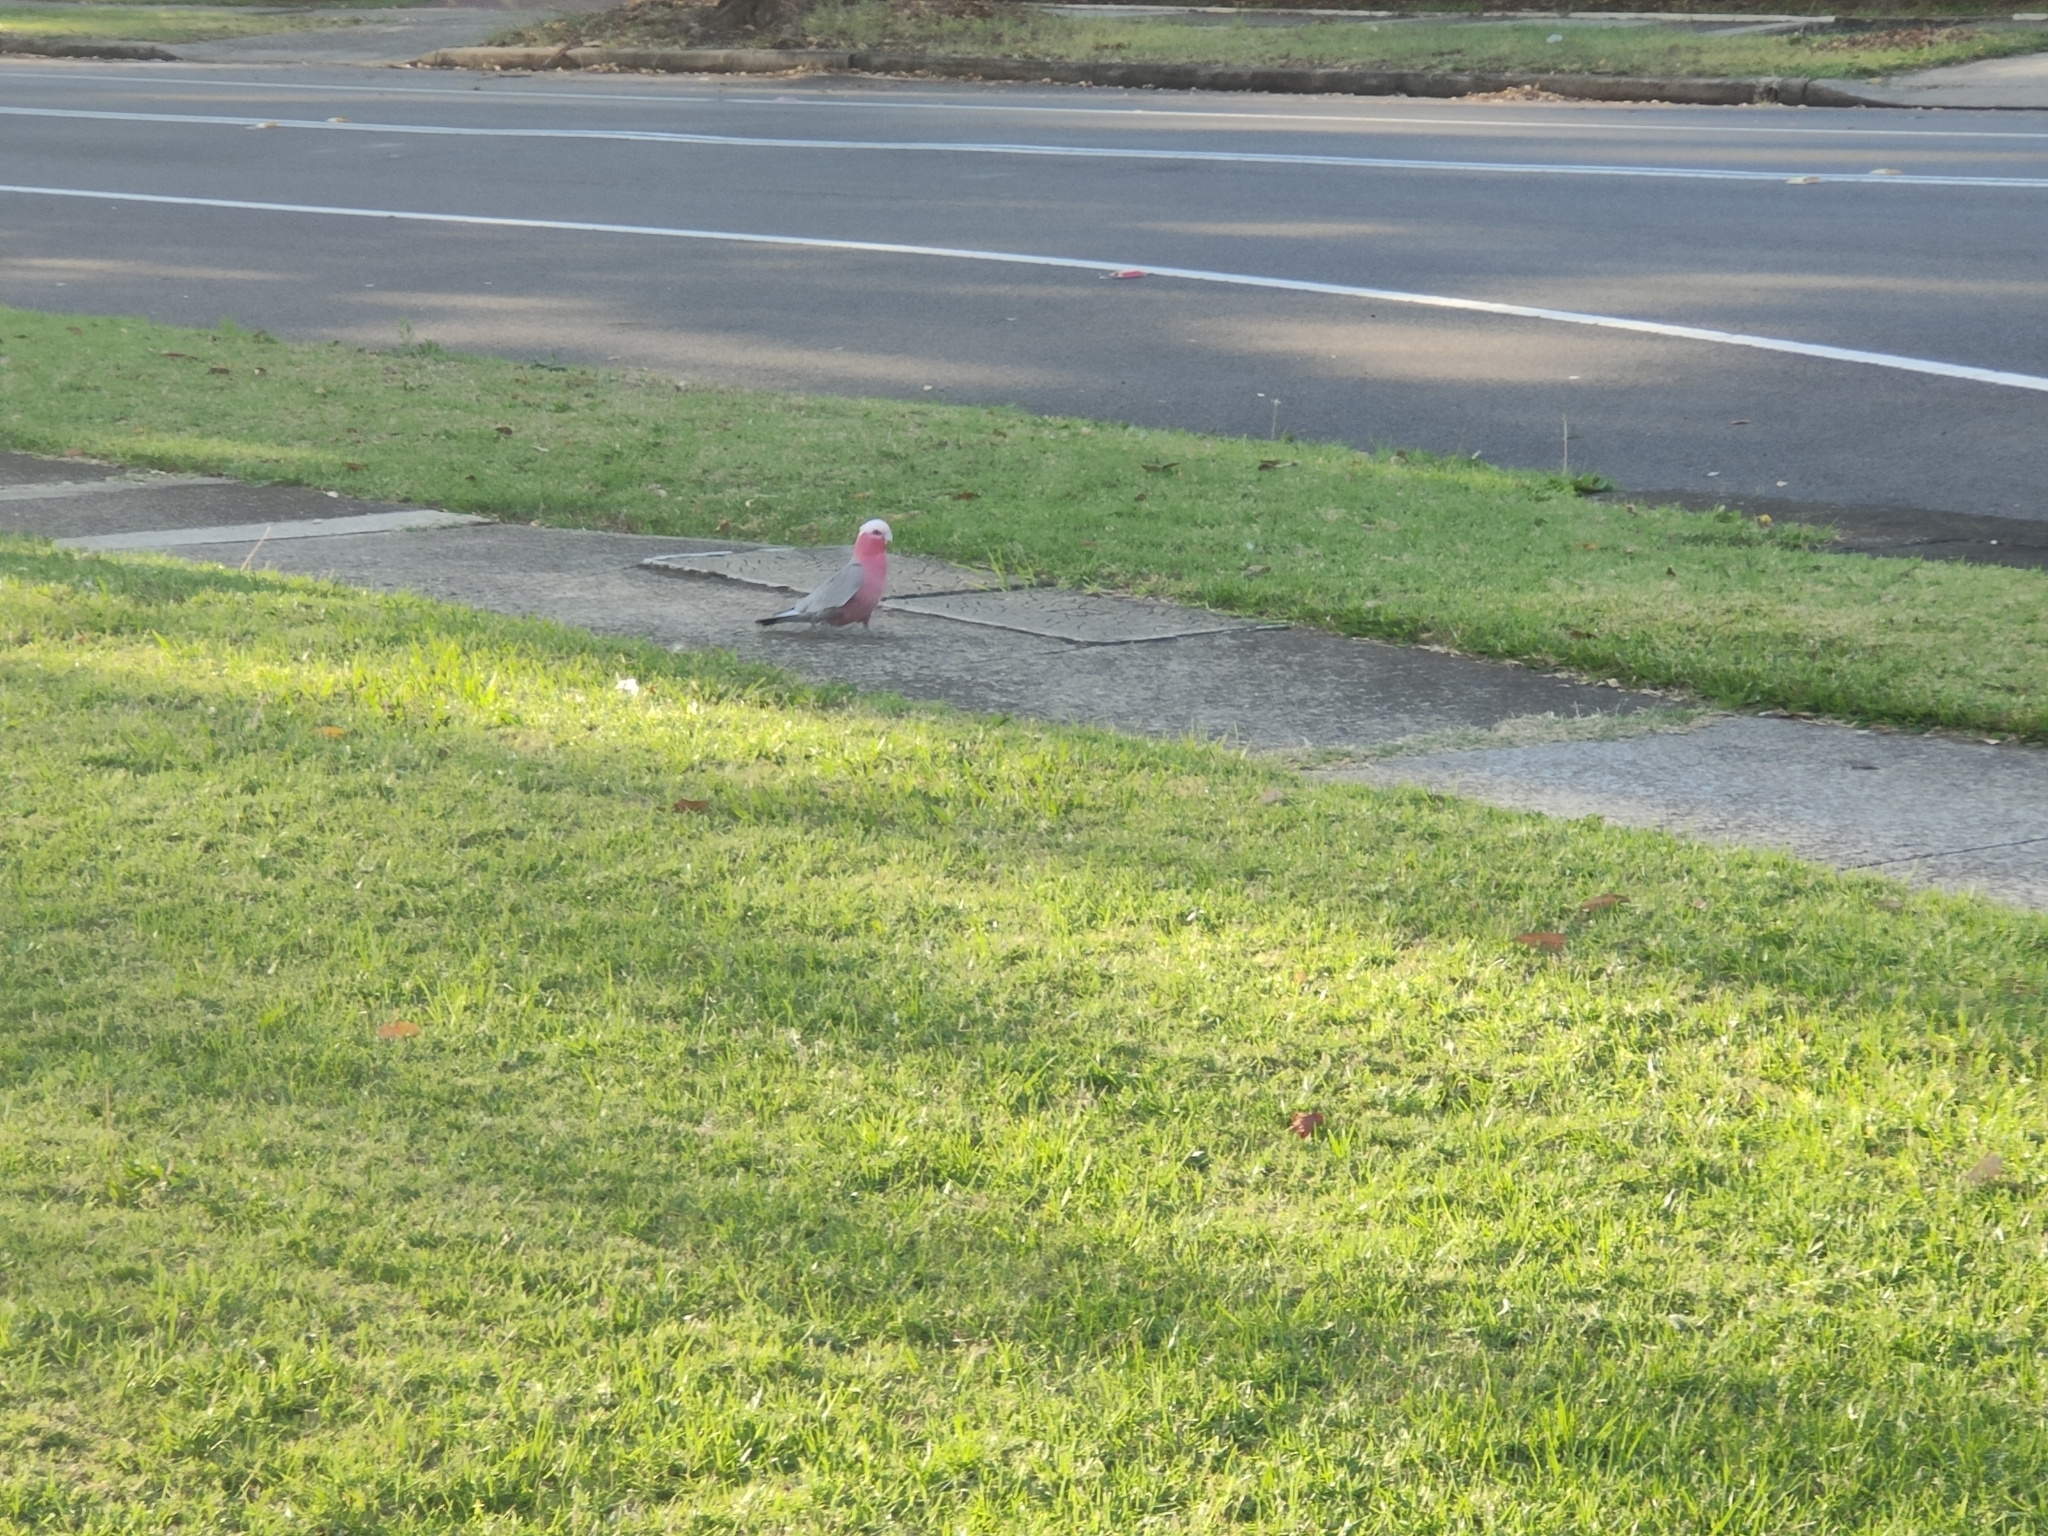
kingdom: Animalia
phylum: Chordata
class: Aves
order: Psittaciformes
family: Psittacidae
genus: Eolophus
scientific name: Eolophus roseicapilla
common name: Galah
